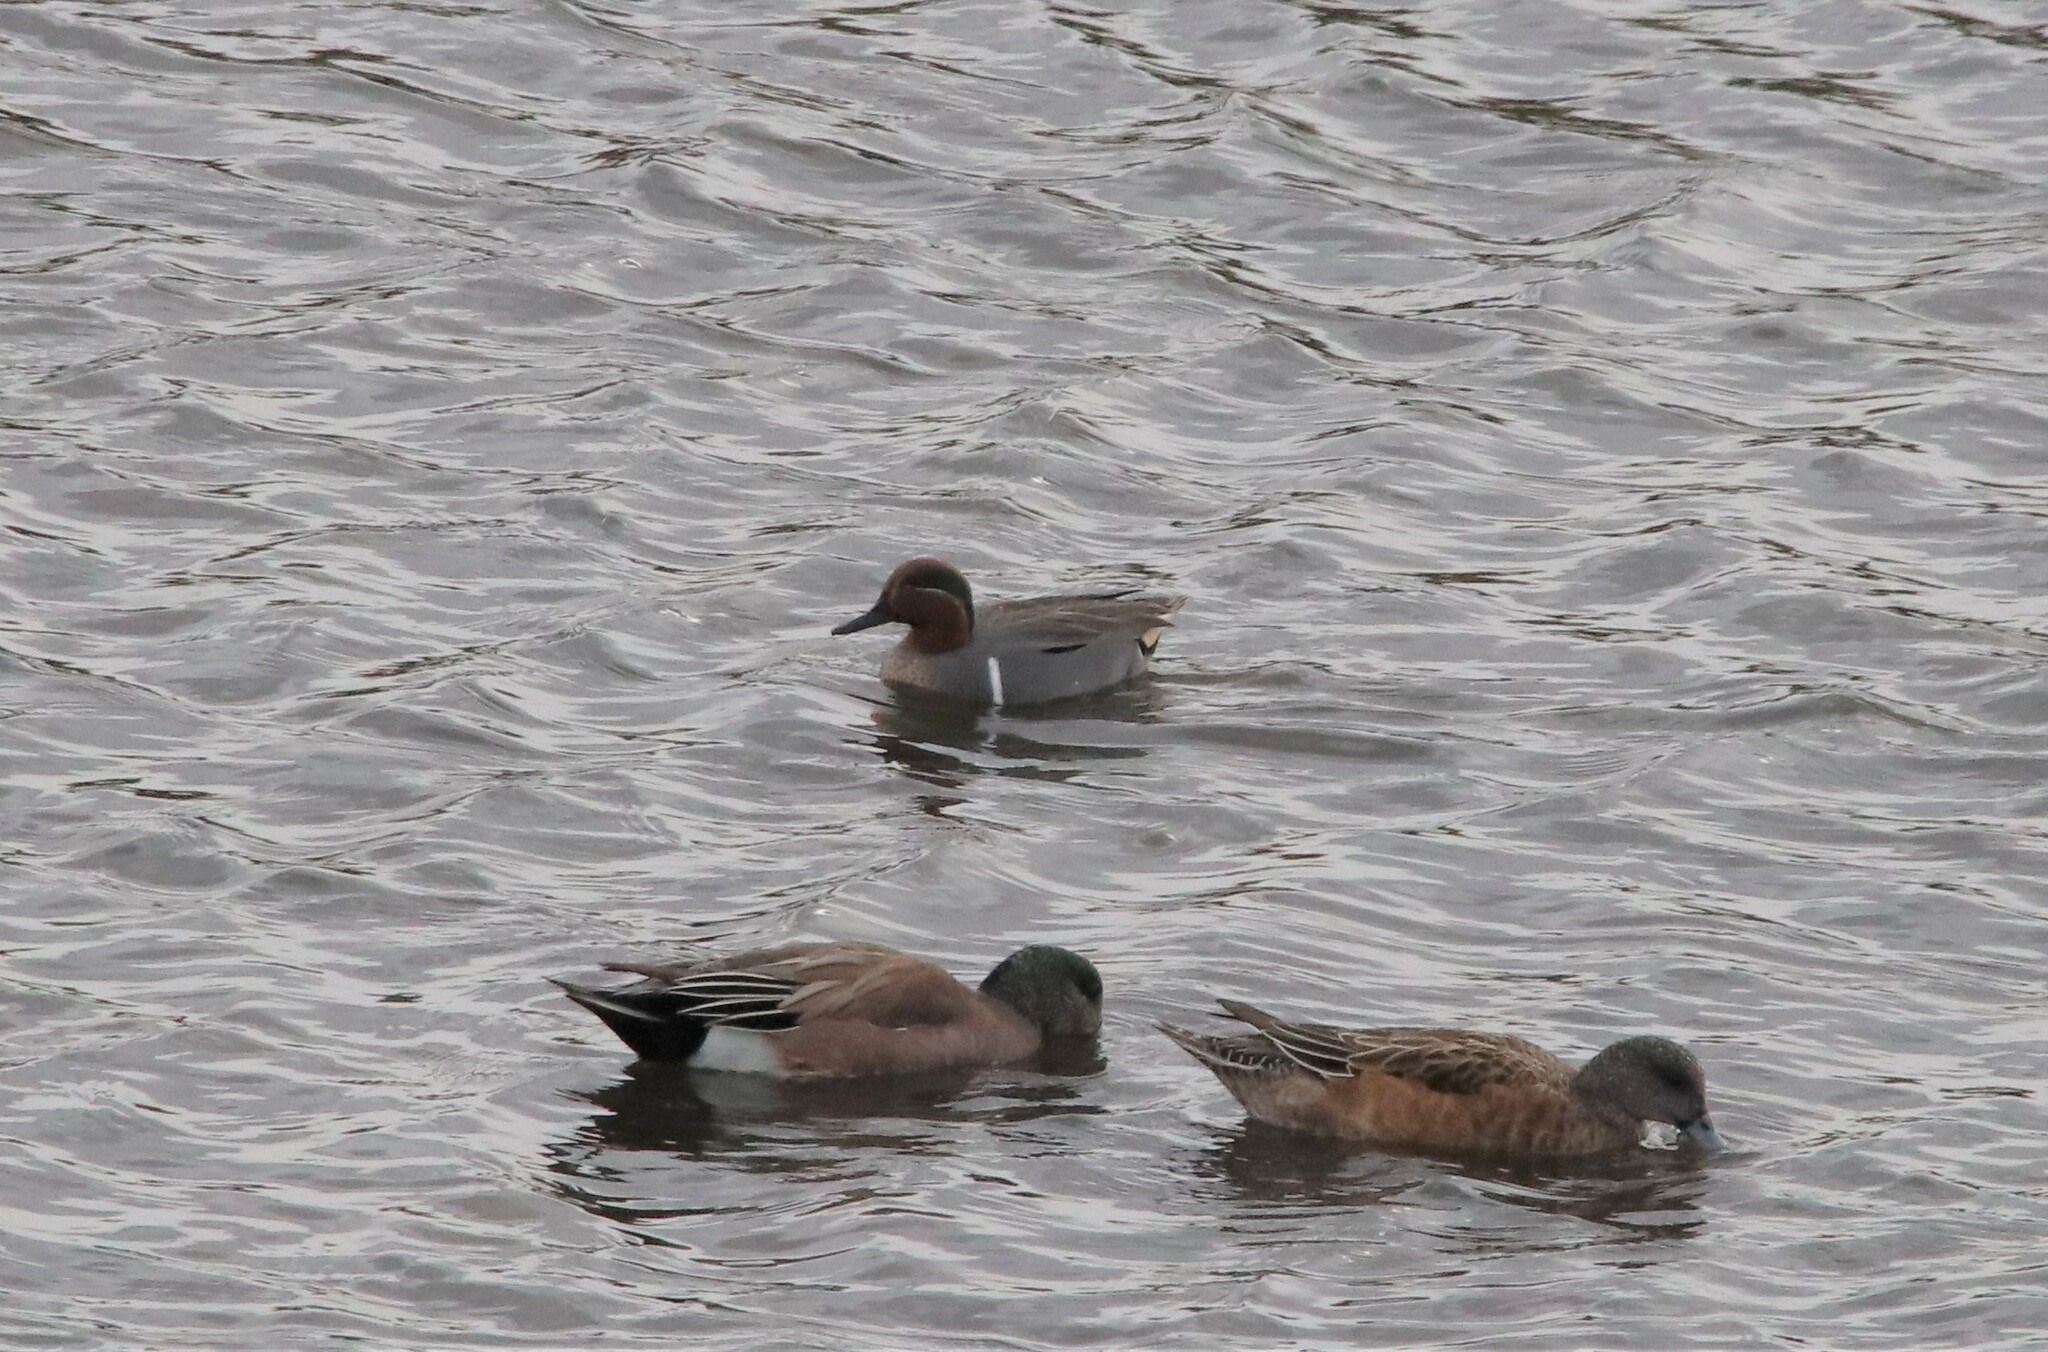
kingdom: Animalia
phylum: Chordata
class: Aves
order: Anseriformes
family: Anatidae
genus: Anas
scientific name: Anas crecca
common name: Eurasian teal
